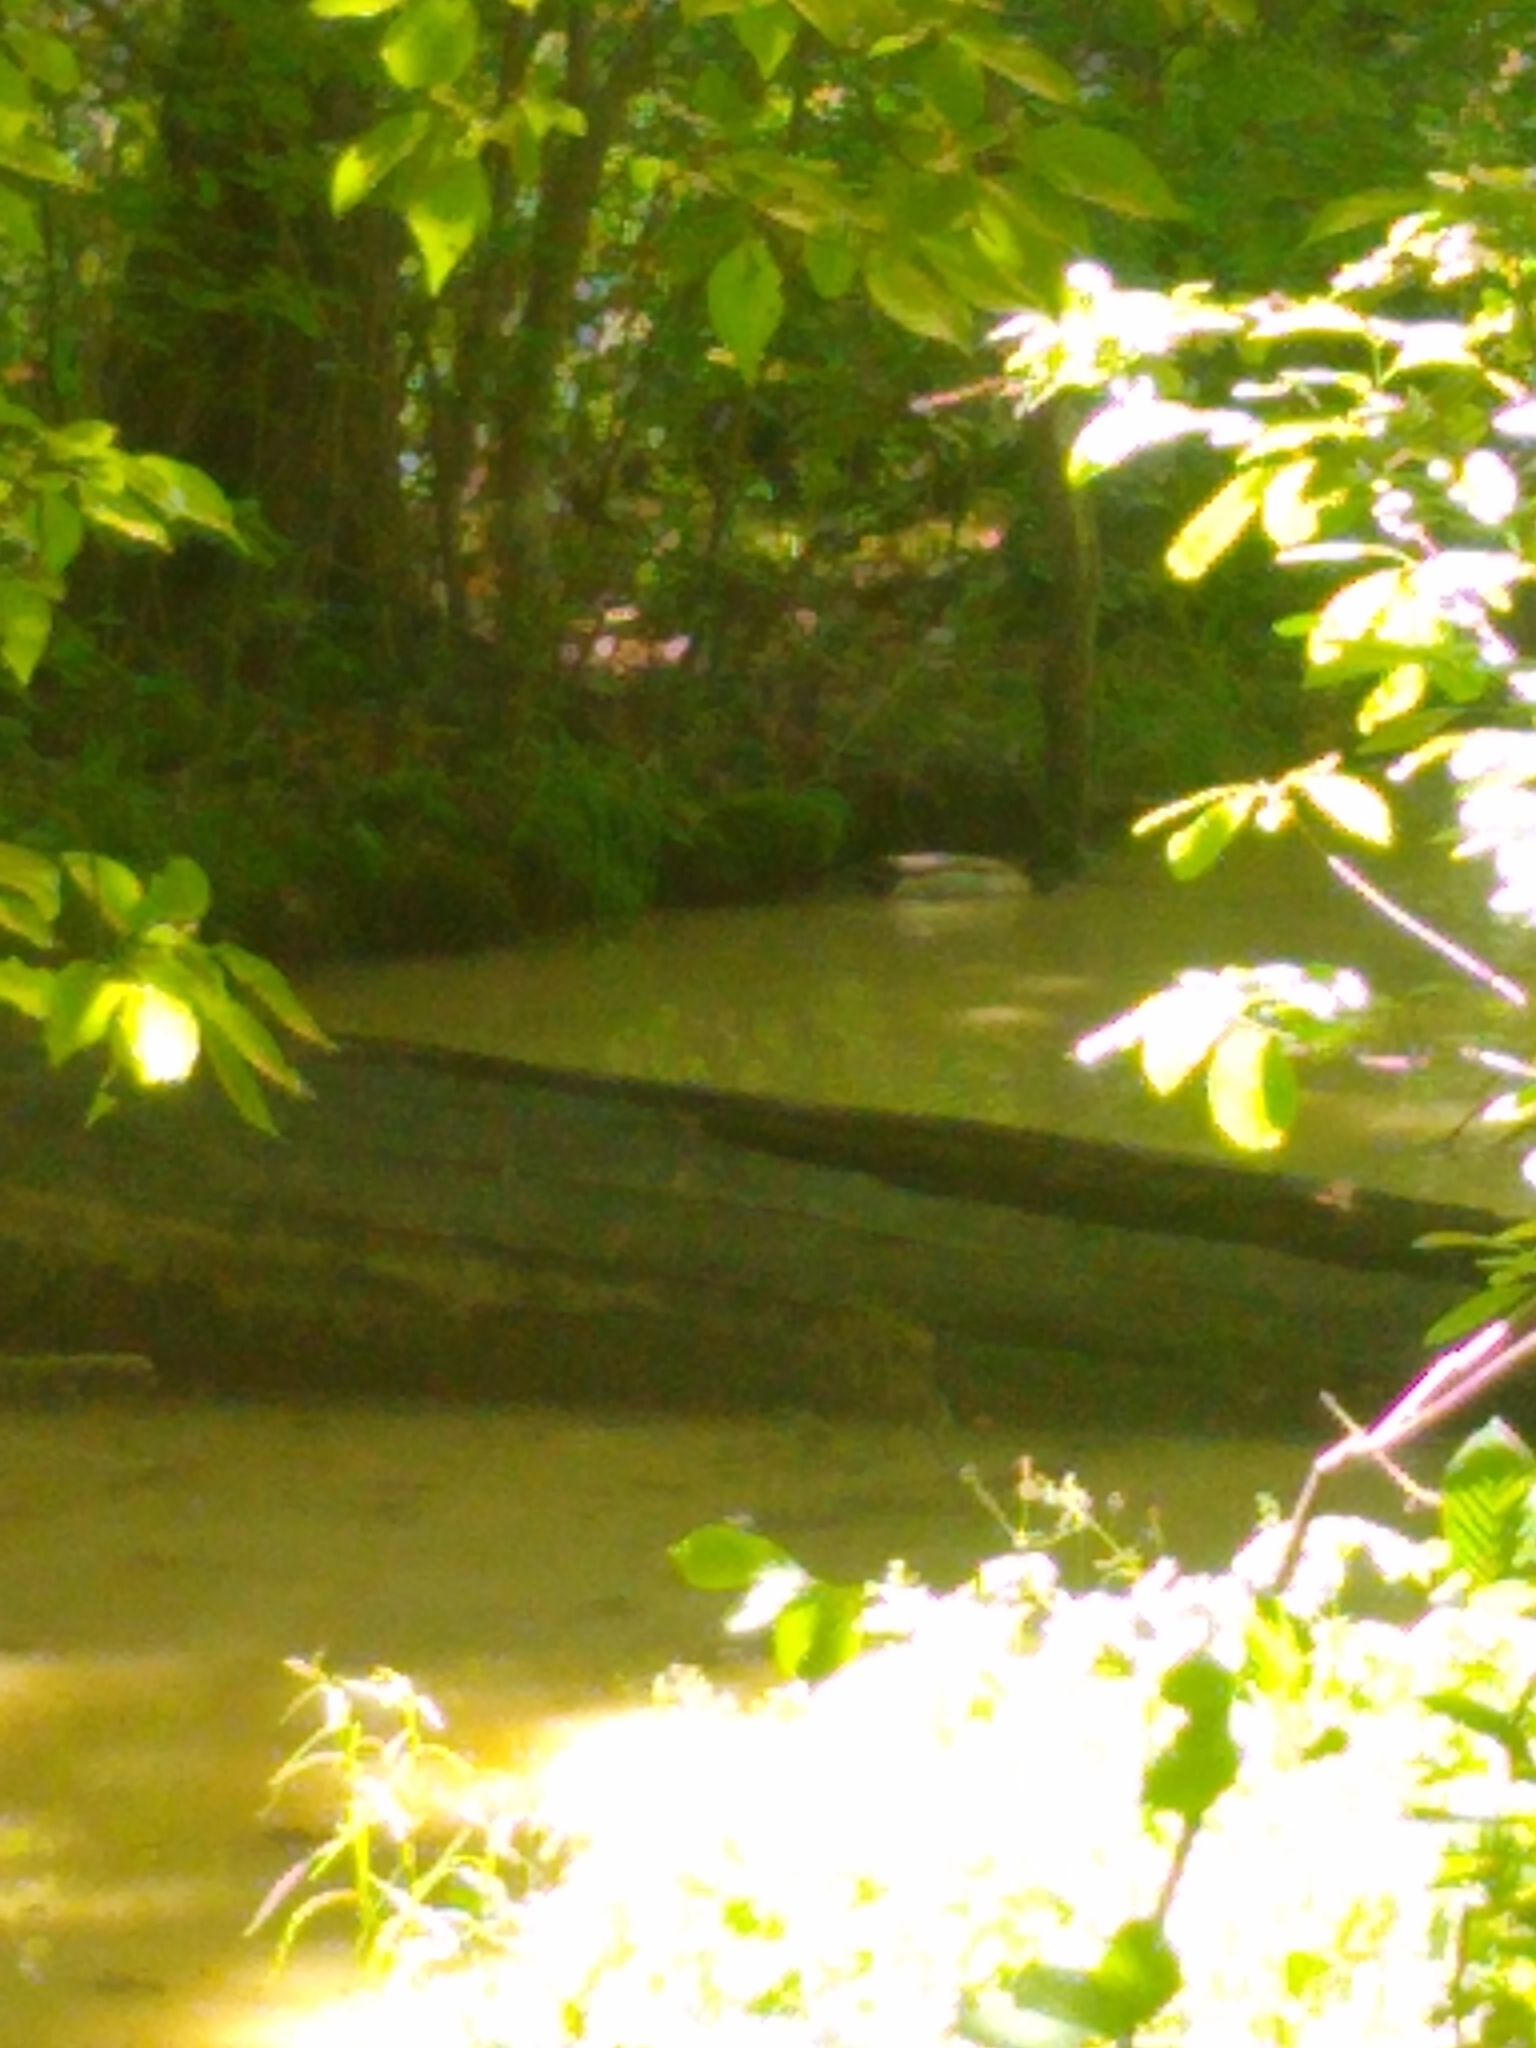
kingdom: Animalia
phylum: Chordata
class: Aves
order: Anseriformes
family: Anatidae
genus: Anas
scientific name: Anas platyrhynchos
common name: Mallard
